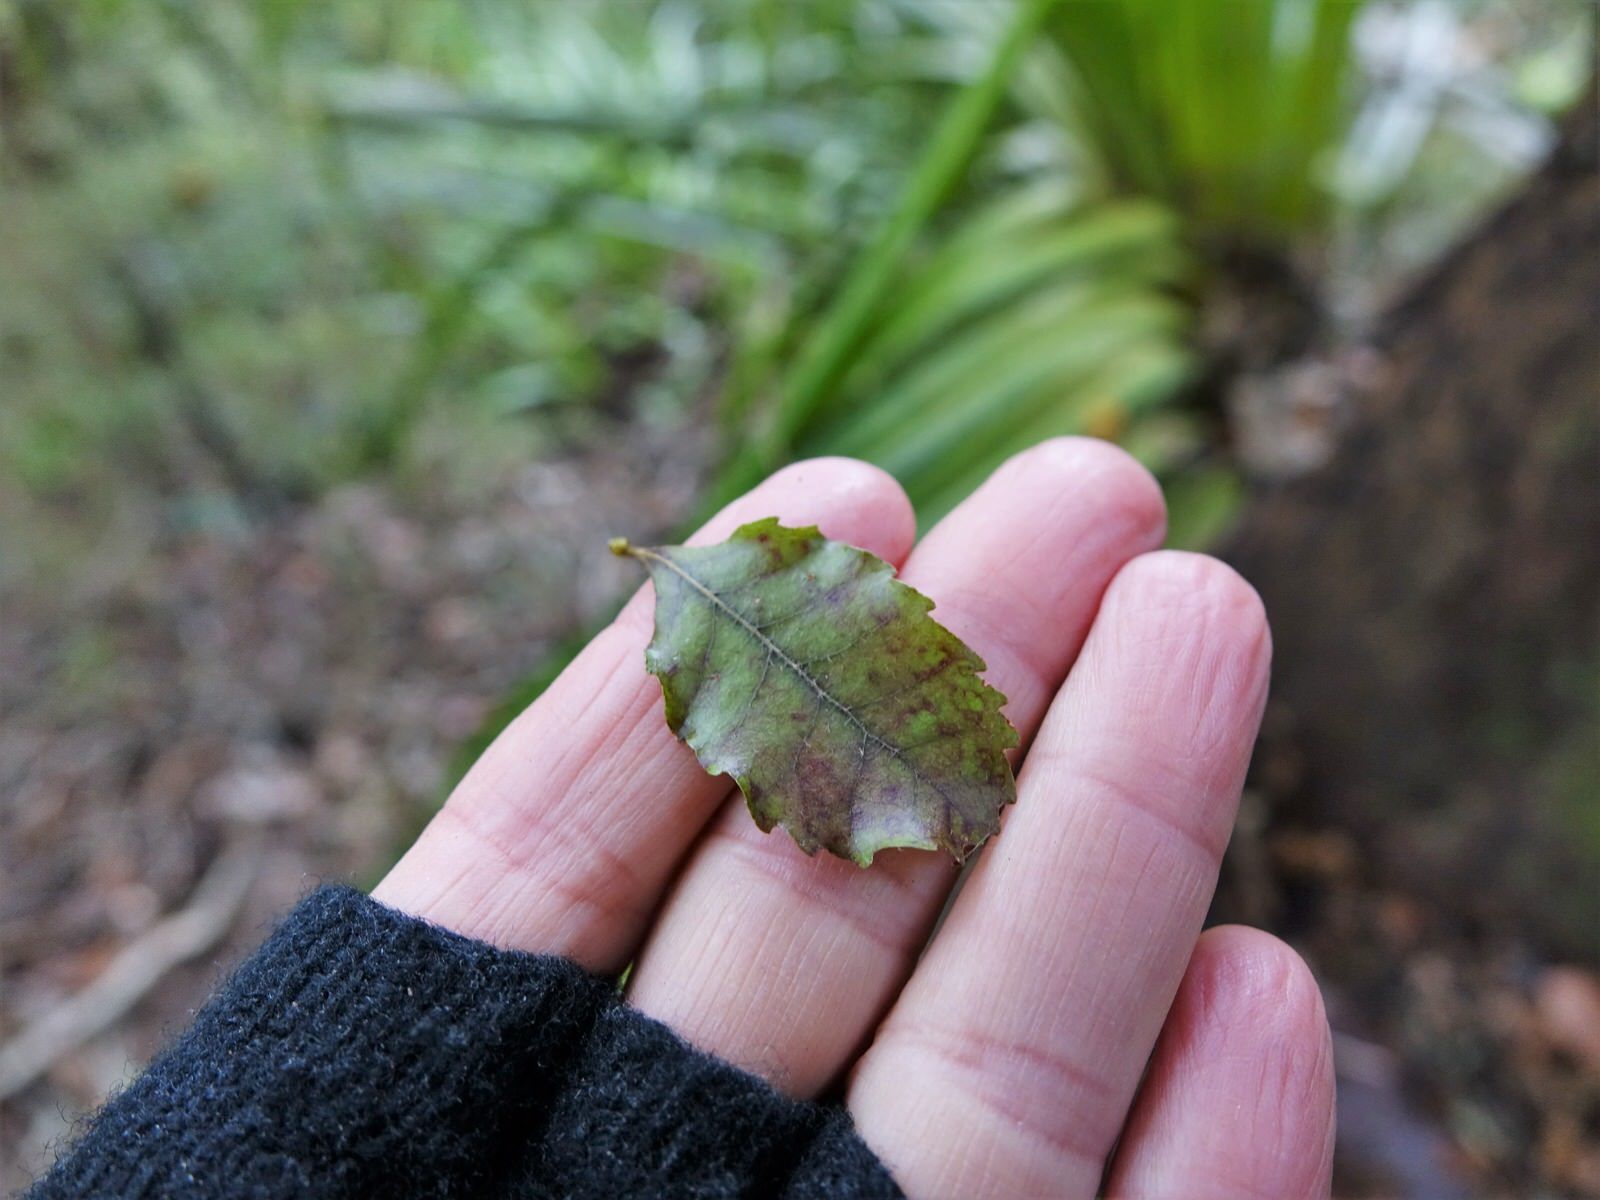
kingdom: Plantae
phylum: Tracheophyta
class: Magnoliopsida
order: Fagales
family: Nothofagaceae
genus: Nothofagus
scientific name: Nothofagus truncata
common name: Hard beech
